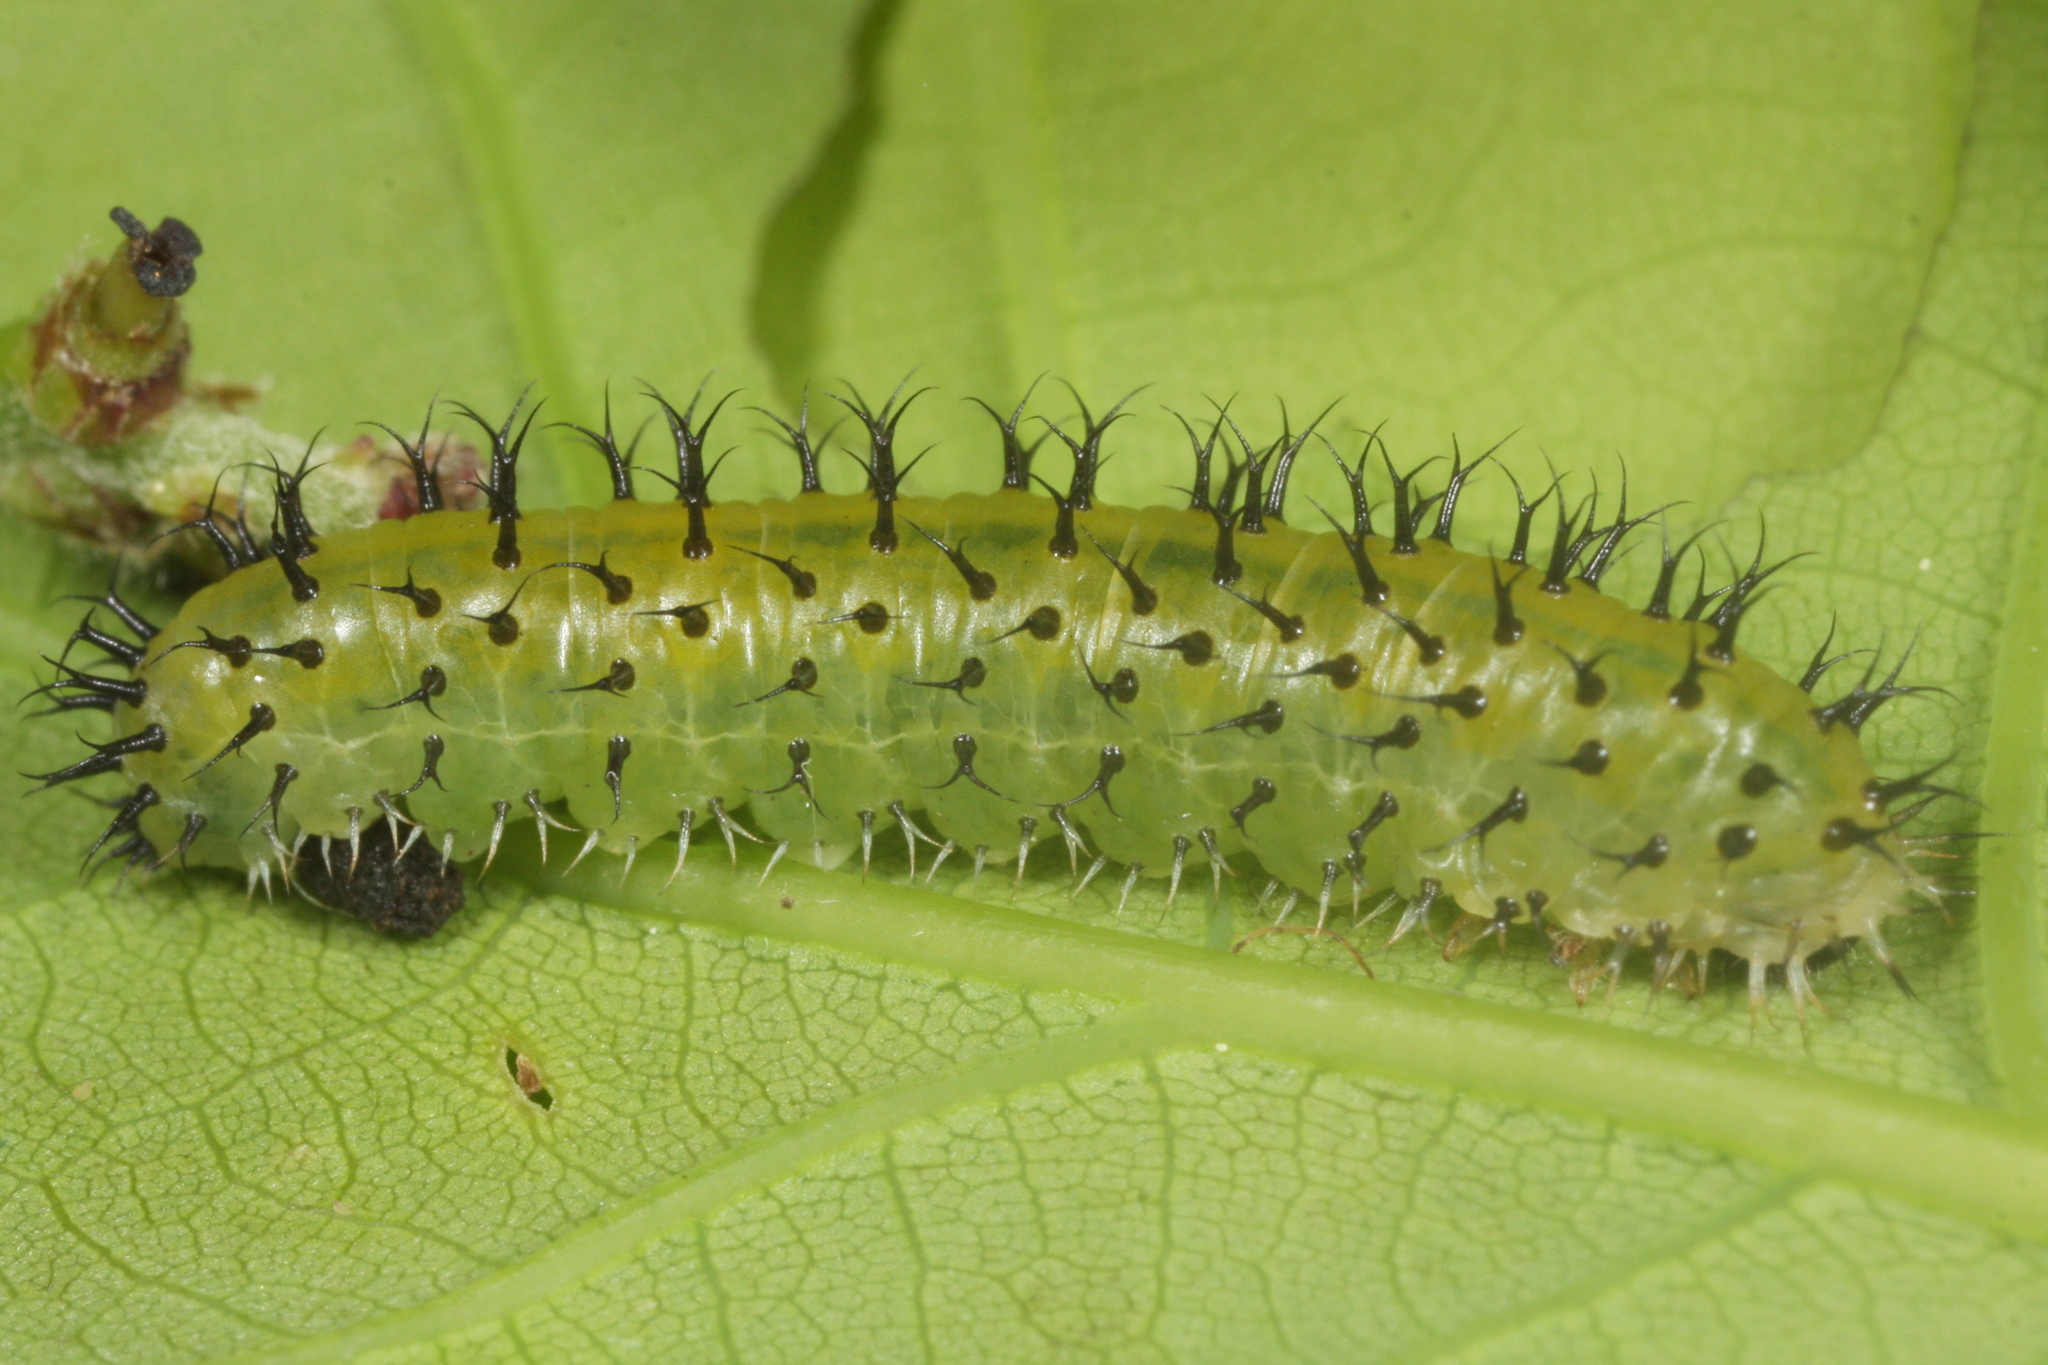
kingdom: Animalia
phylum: Arthropoda
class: Insecta
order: Hymenoptera
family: Tenthredinidae
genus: Periclista
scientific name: Periclista lineolata
